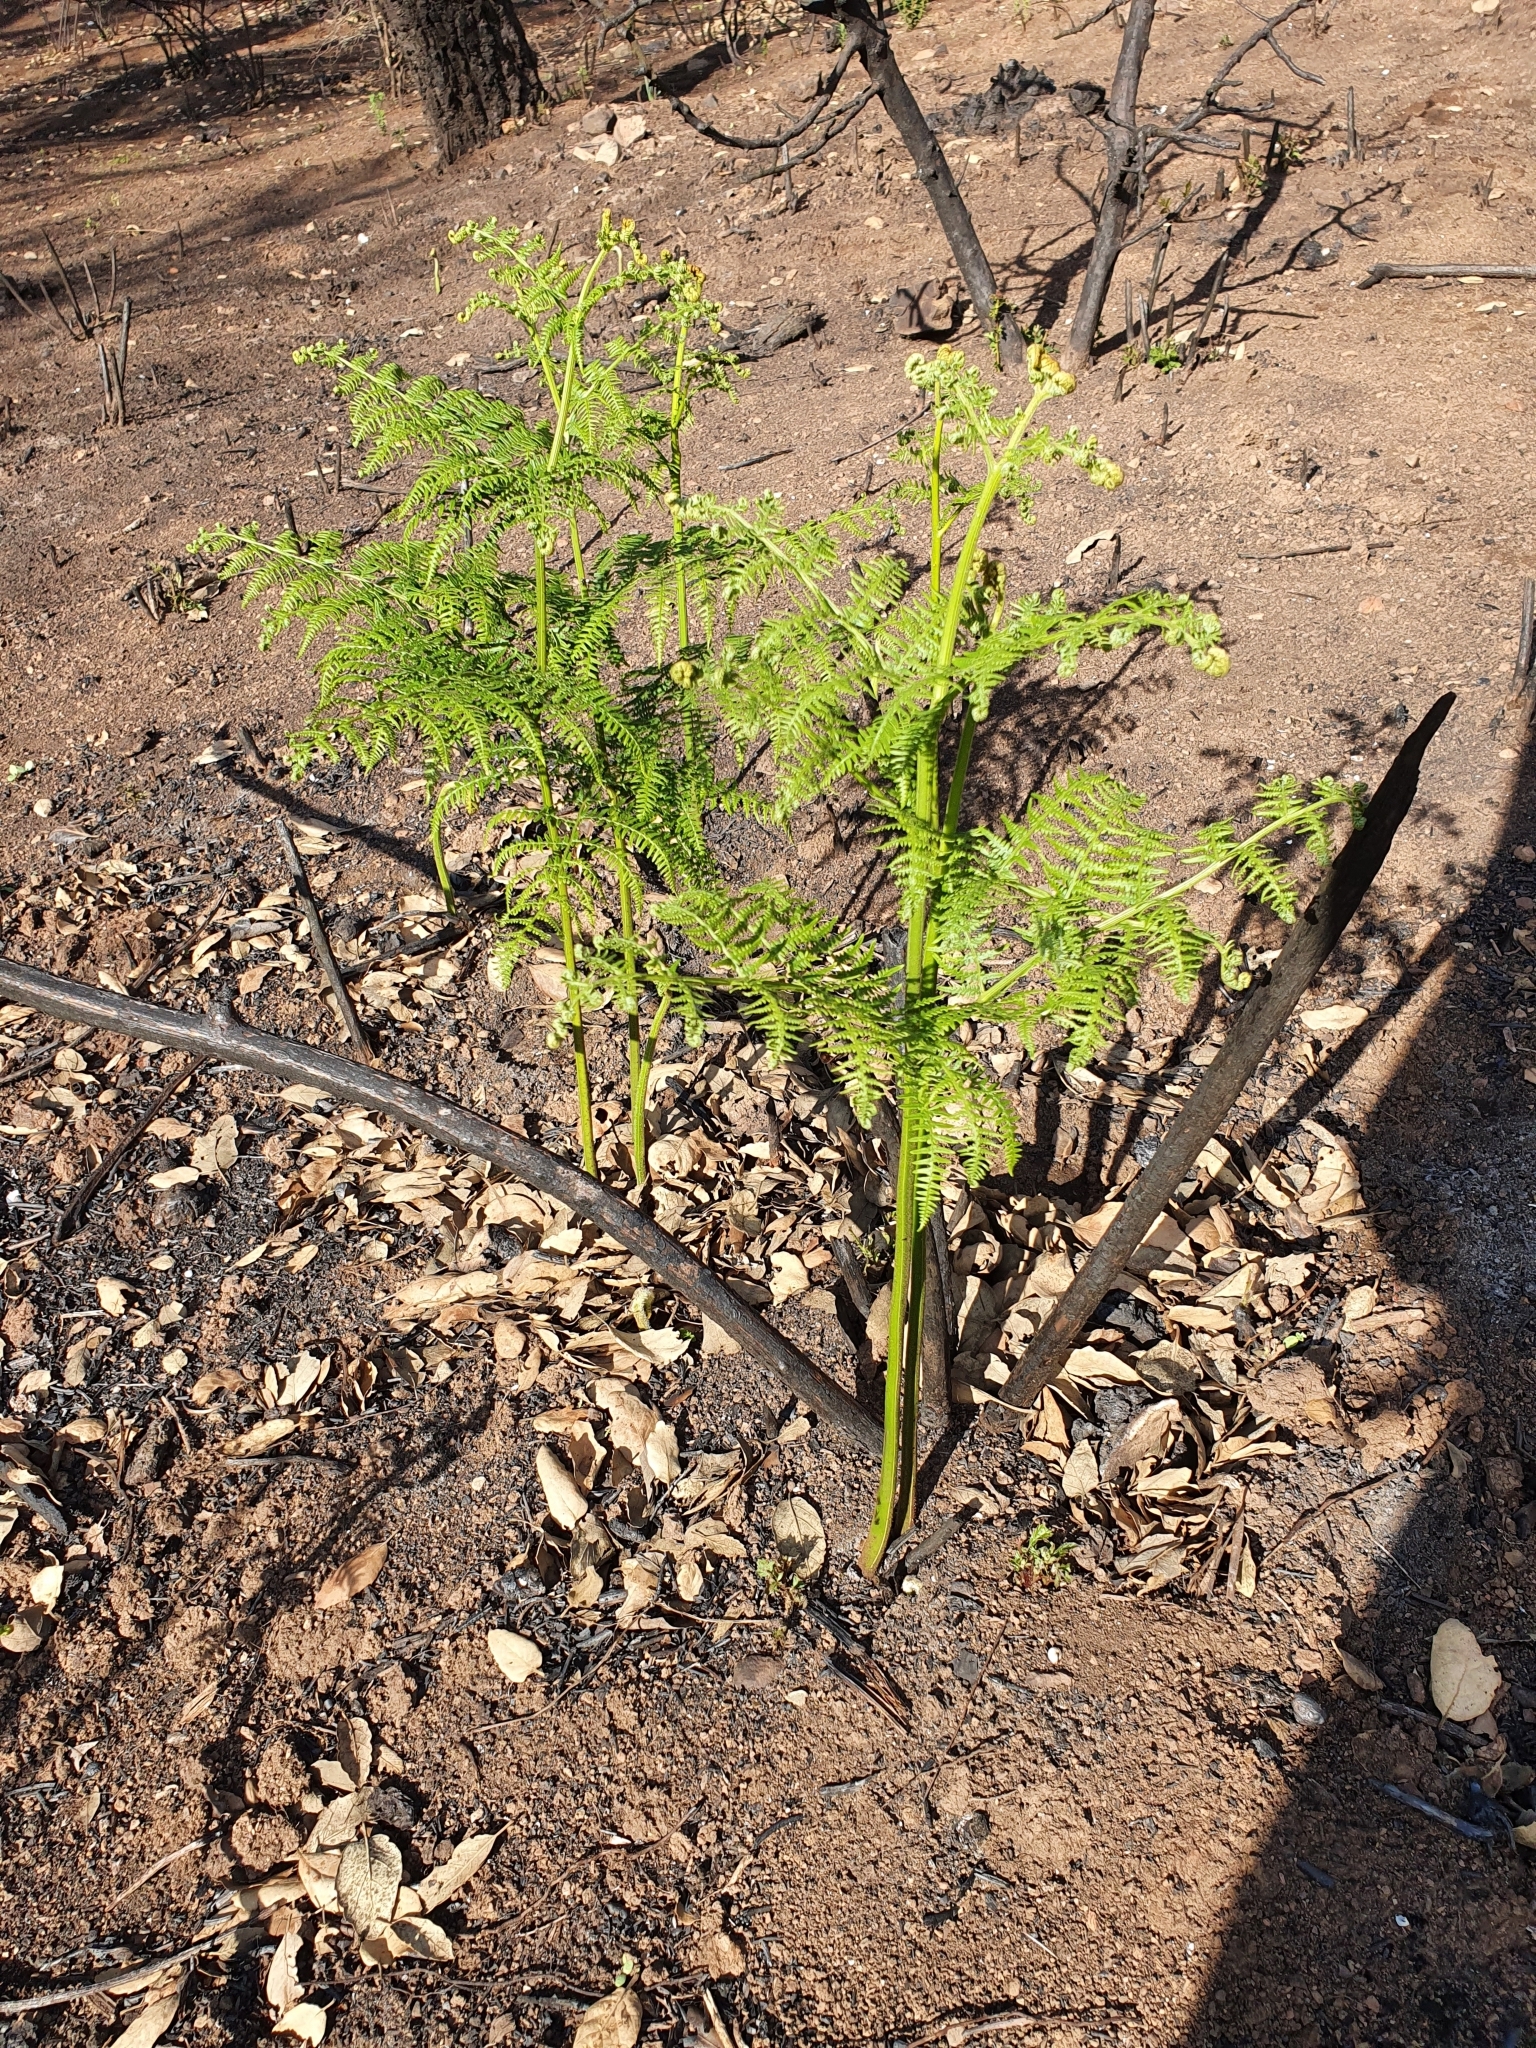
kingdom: Plantae
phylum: Tracheophyta
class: Polypodiopsida
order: Polypodiales
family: Dennstaedtiaceae
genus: Pteridium
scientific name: Pteridium aquilinum
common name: Bracken
